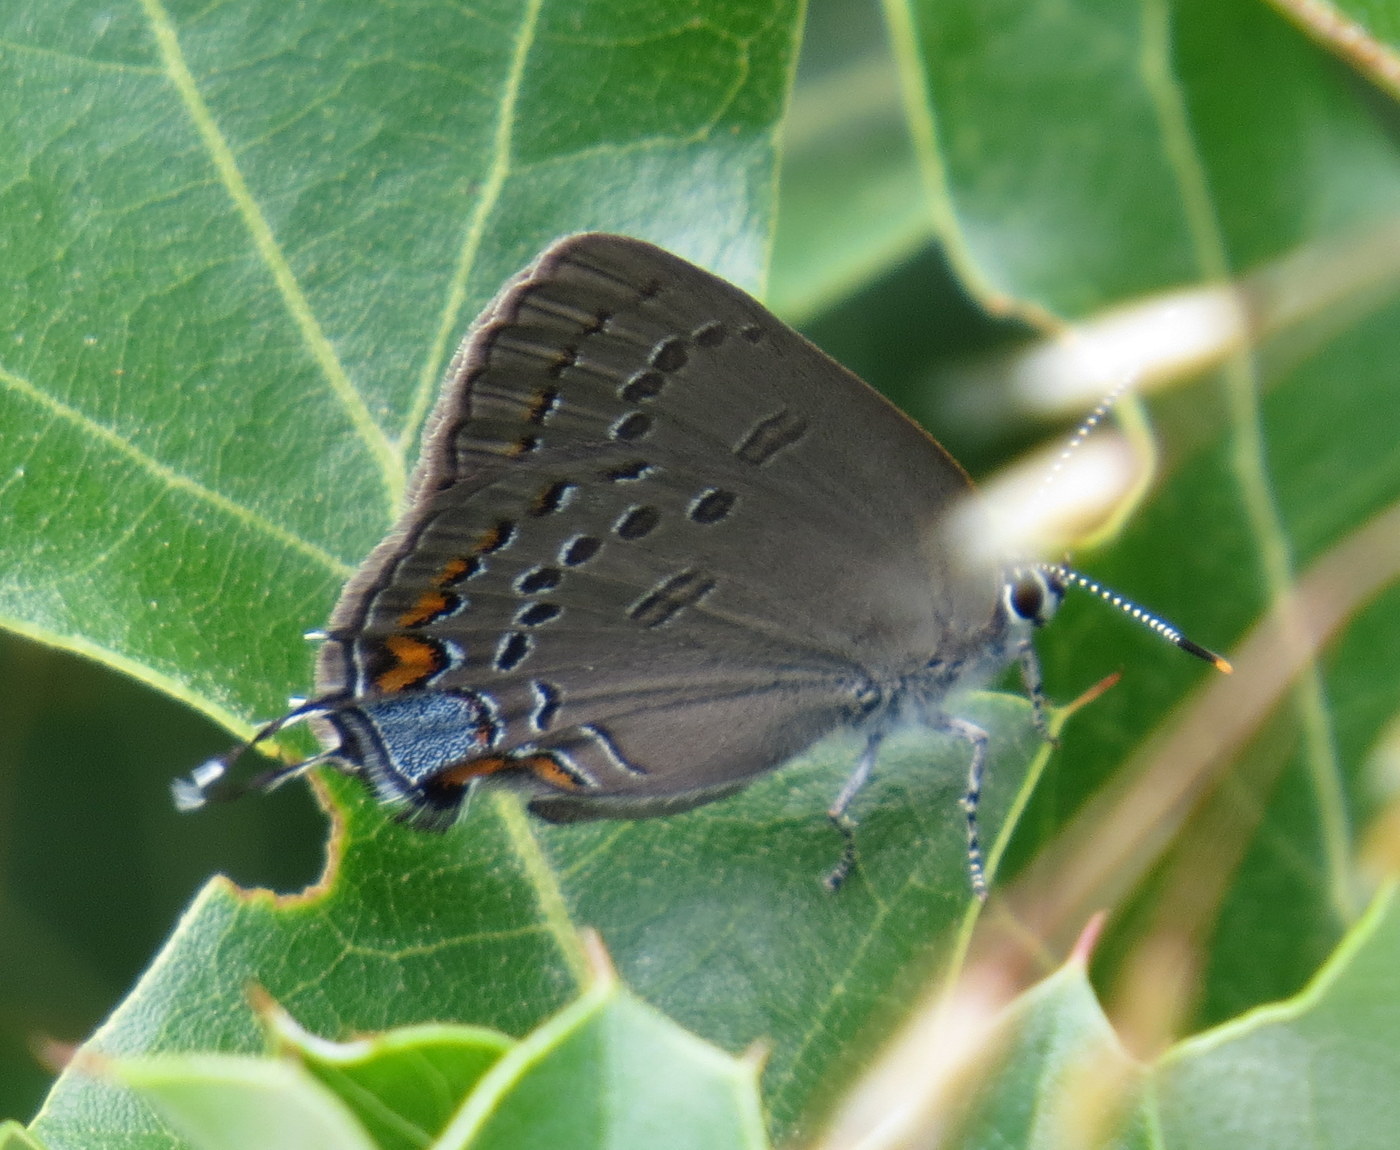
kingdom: Animalia
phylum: Arthropoda
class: Insecta
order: Lepidoptera
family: Lycaenidae
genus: Satyrium
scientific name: Satyrium edwardsii
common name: Edwards' hairstreak
